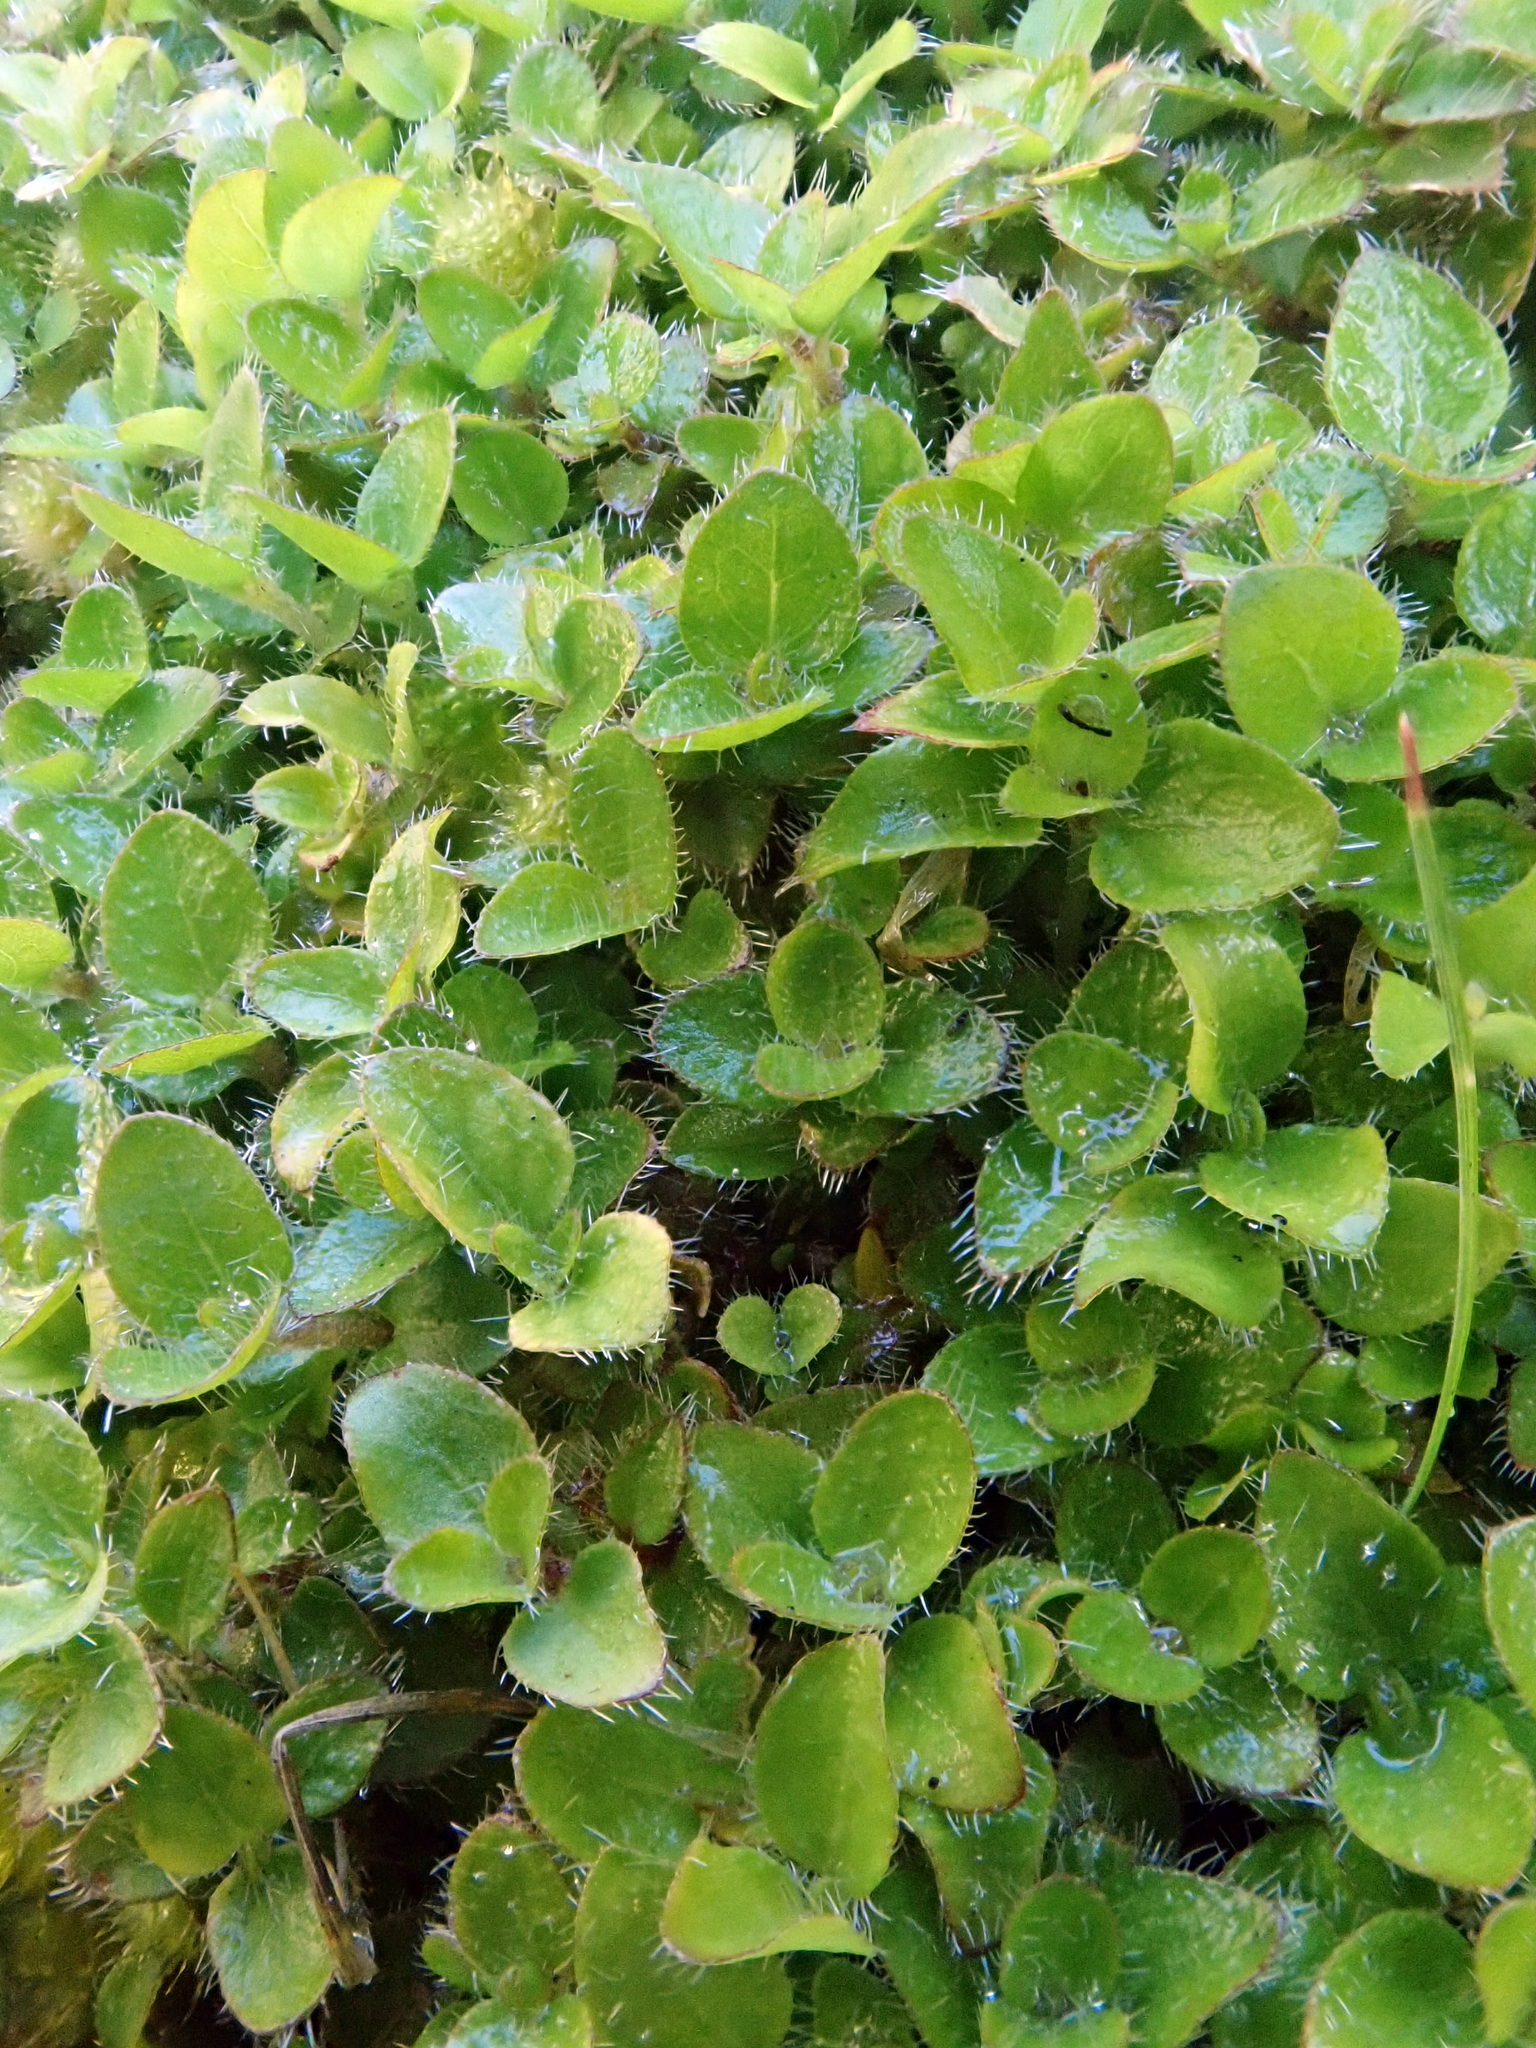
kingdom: Plantae
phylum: Tracheophyta
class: Magnoliopsida
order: Gentianales
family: Rubiaceae
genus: Leptostigma
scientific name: Leptostigma setulosum
